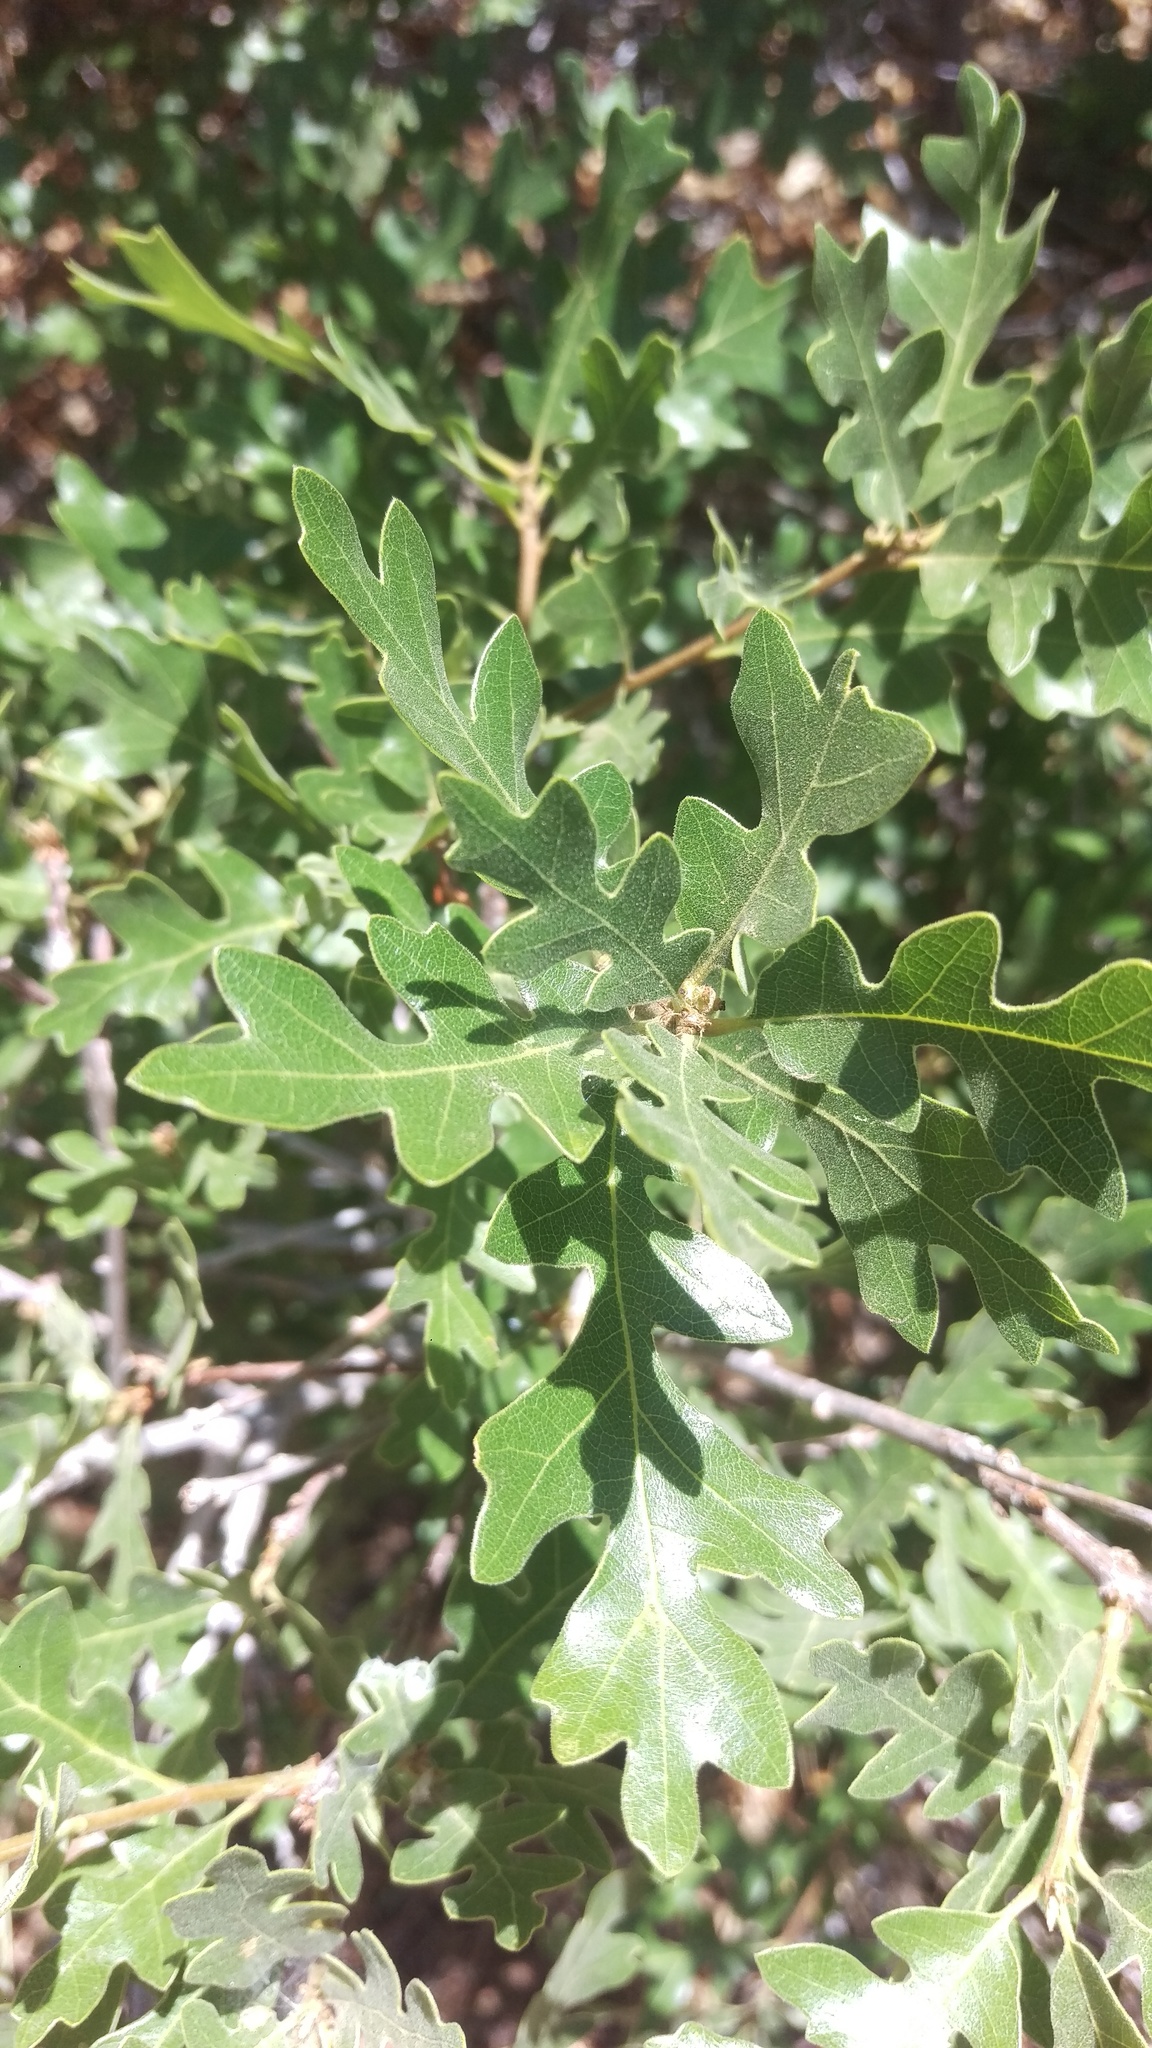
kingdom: Plantae
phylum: Tracheophyta
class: Magnoliopsida
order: Fagales
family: Fagaceae
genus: Quercus
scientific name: Quercus gambelii
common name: Gambel oak
